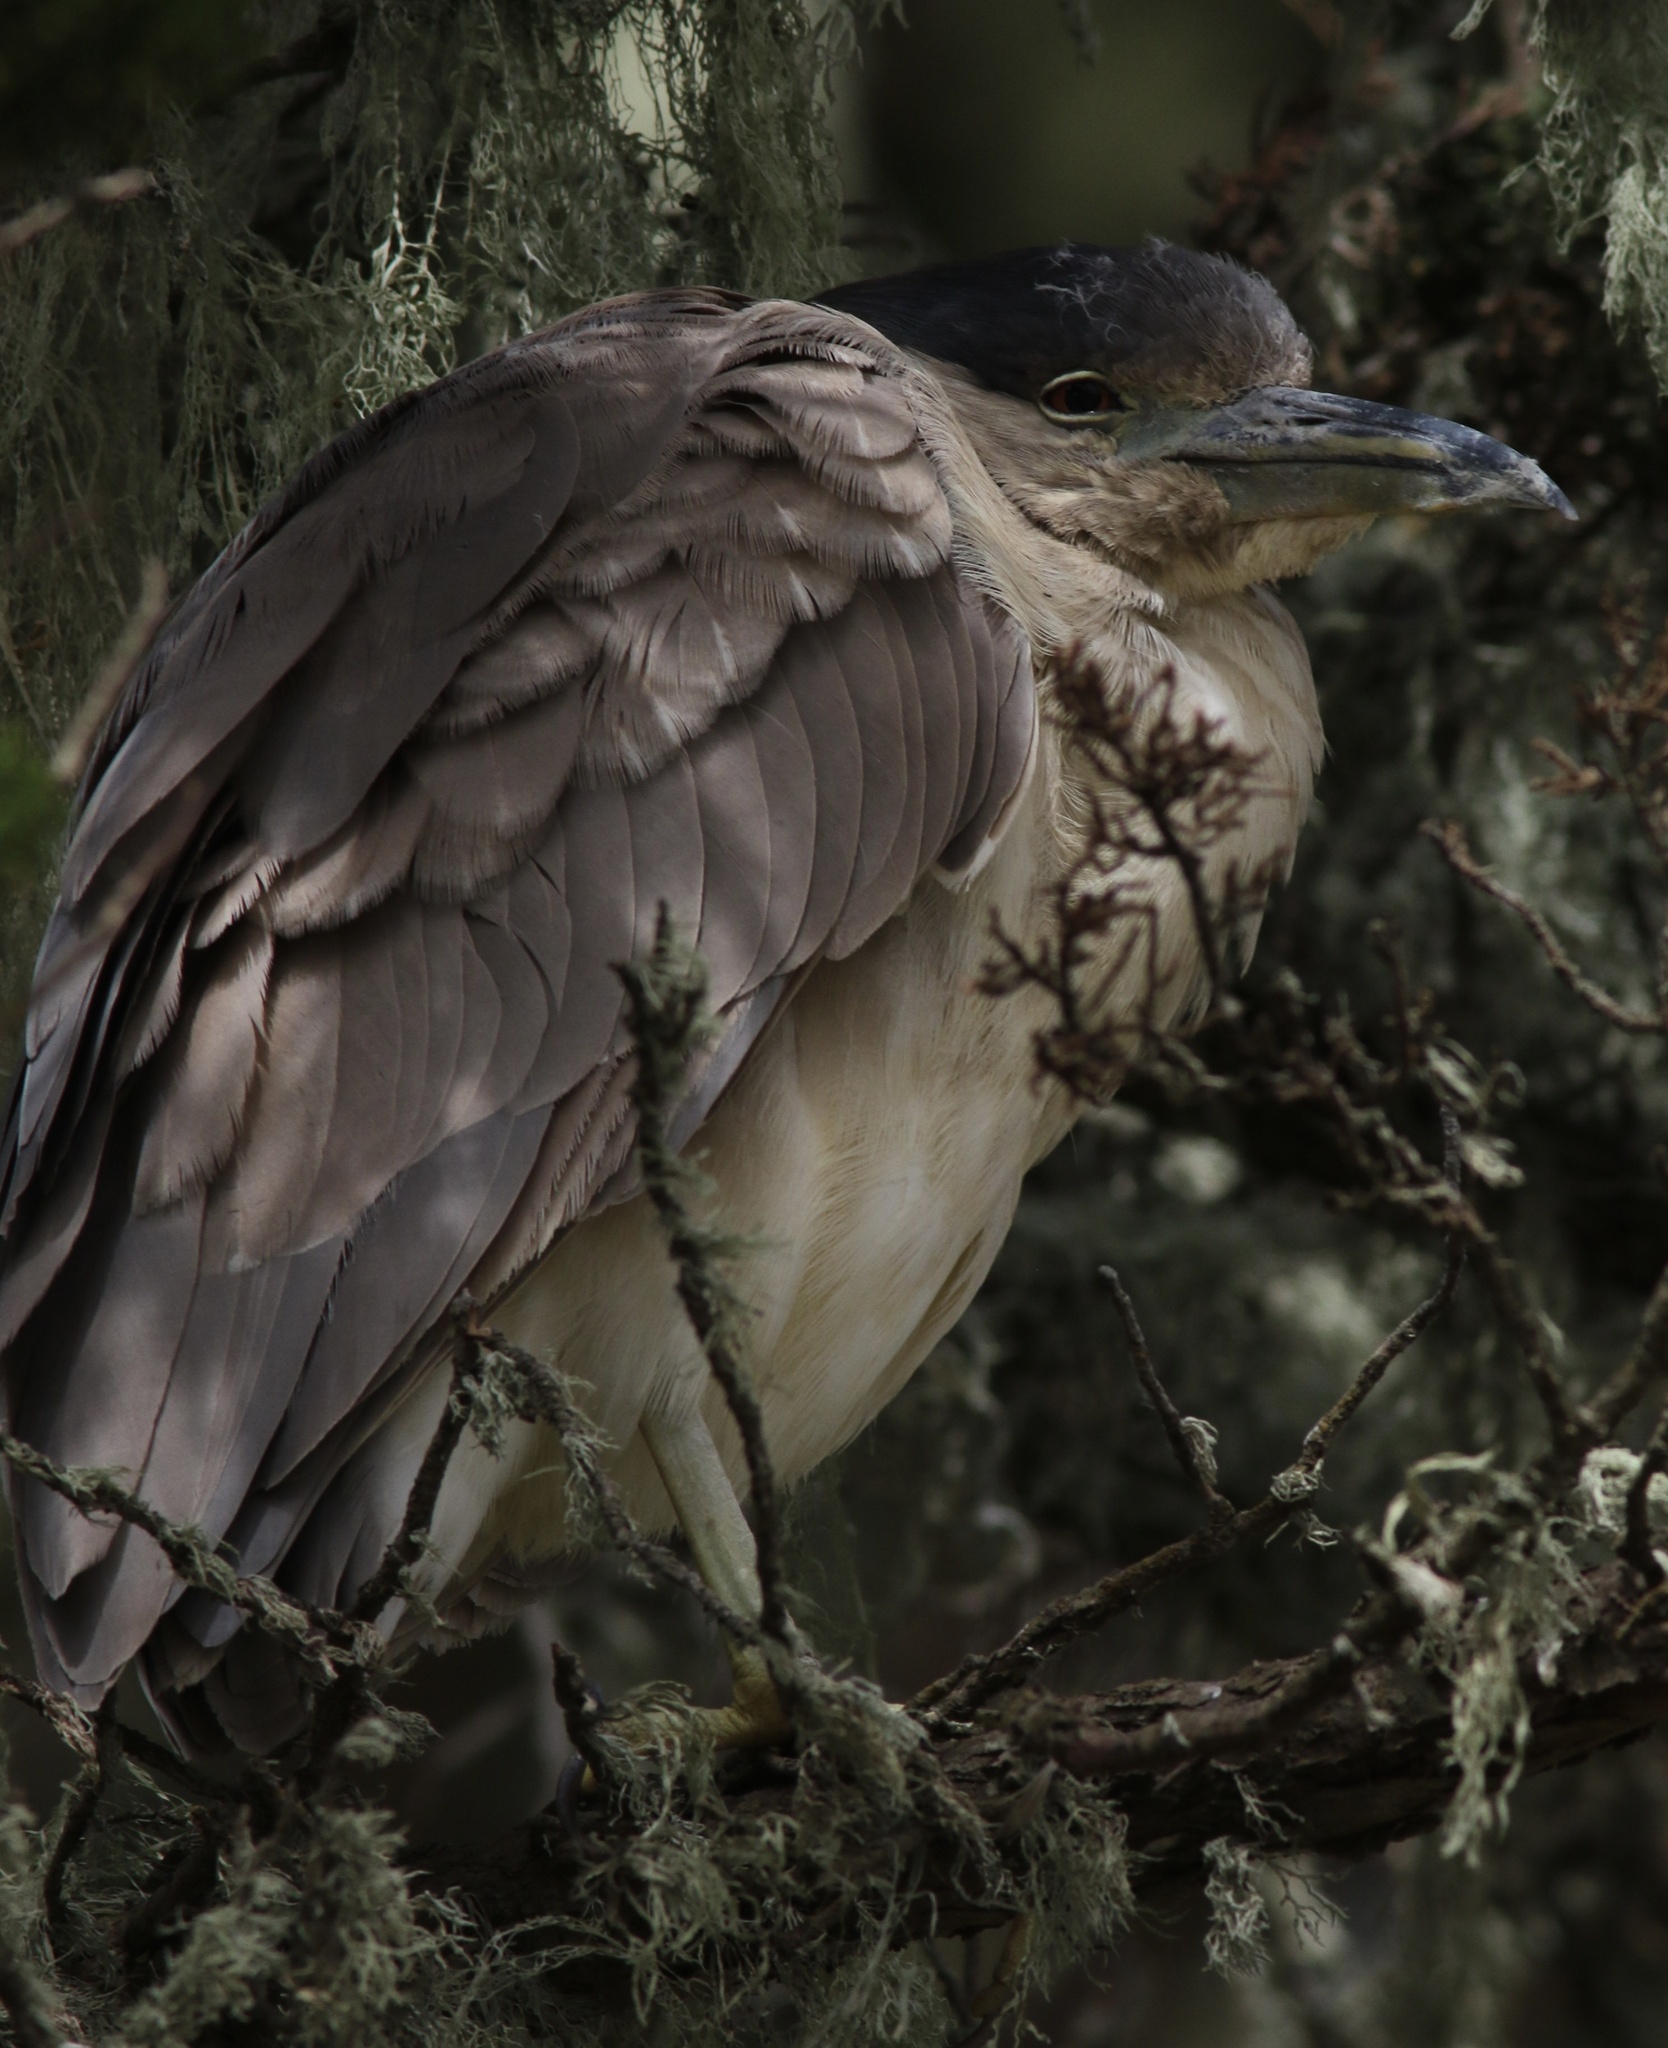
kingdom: Animalia
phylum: Chordata
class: Aves
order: Pelecaniformes
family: Ardeidae
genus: Nycticorax
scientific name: Nycticorax nycticorax
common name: Black-crowned night heron
